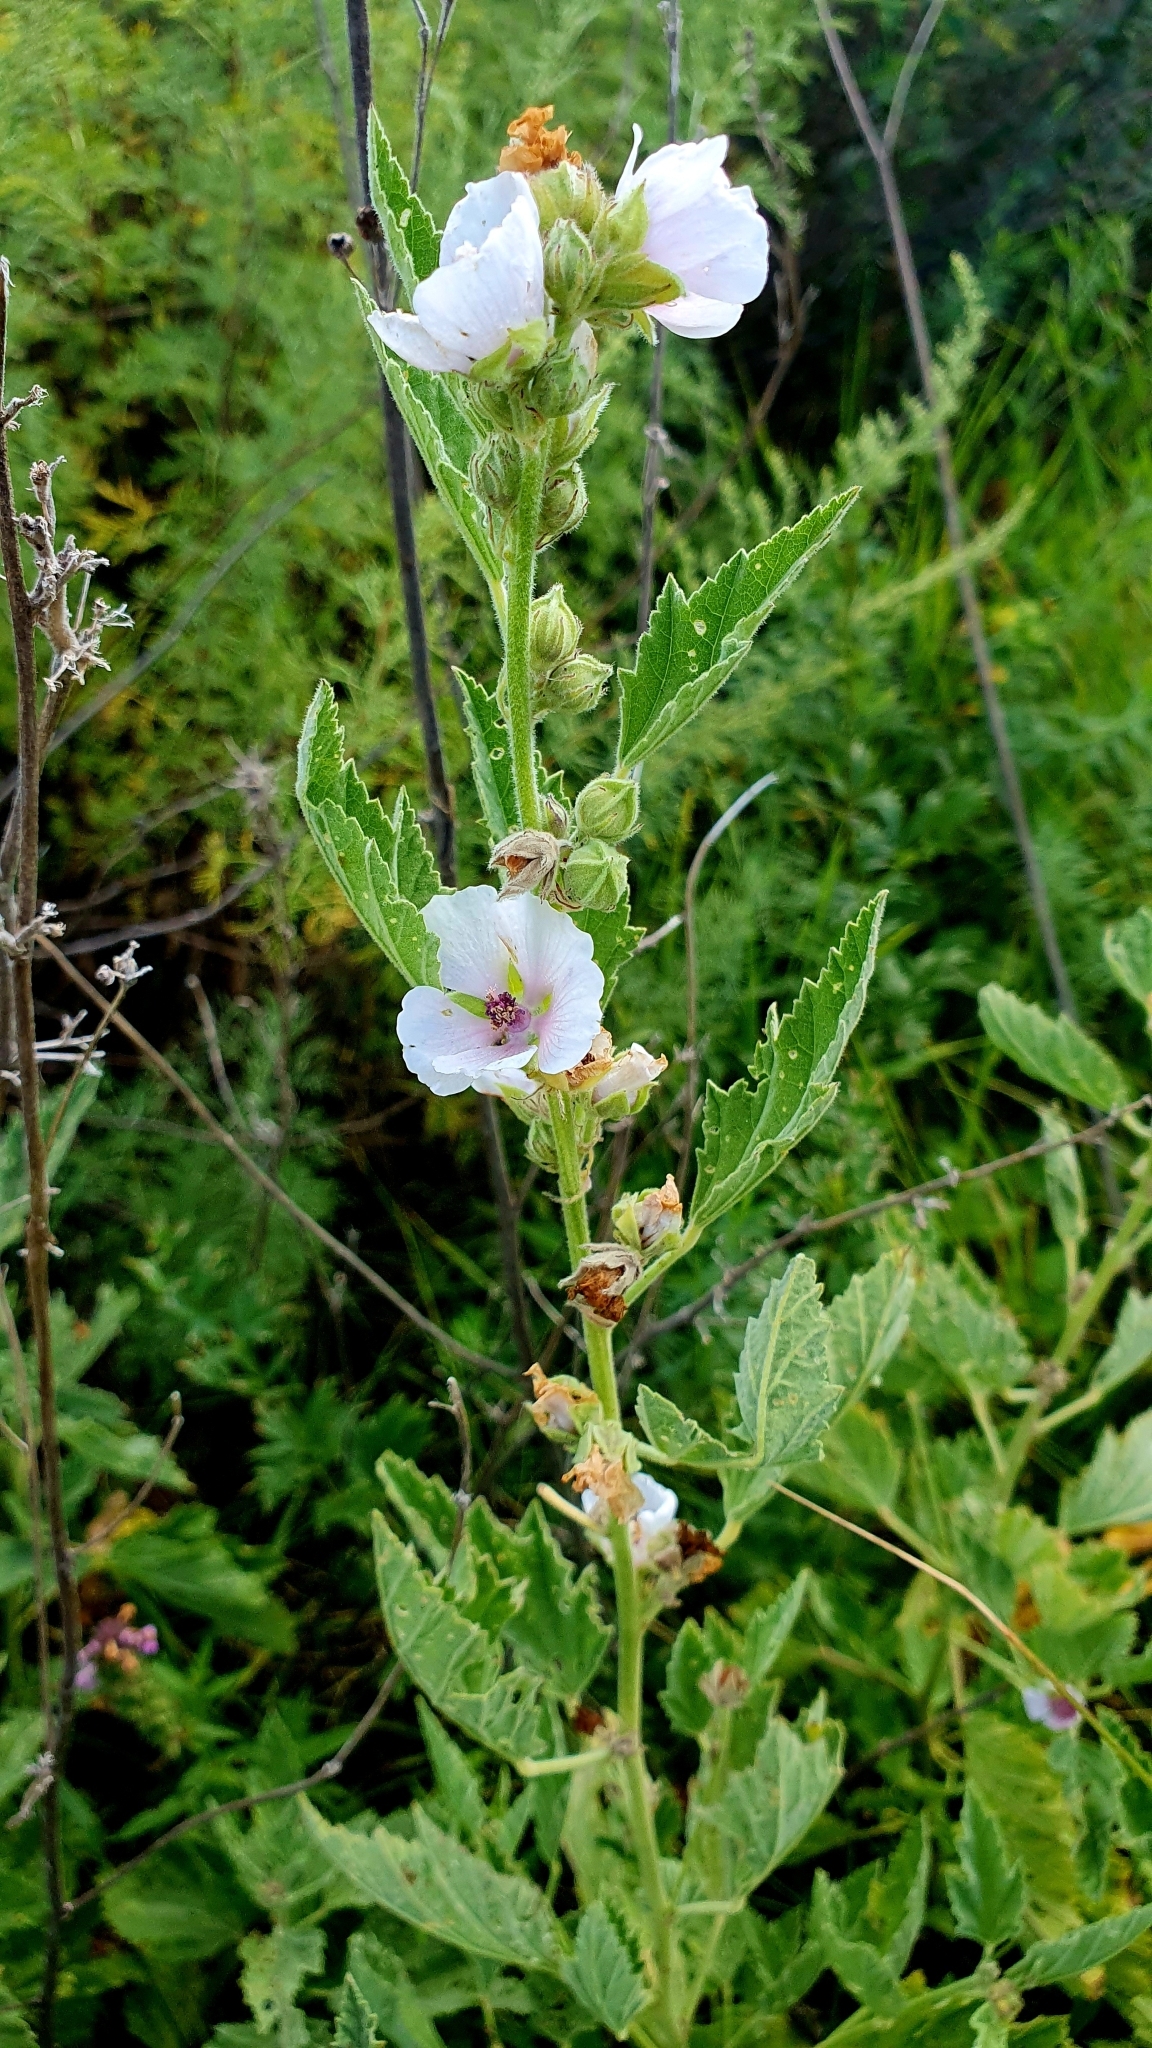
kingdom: Plantae
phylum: Tracheophyta
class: Magnoliopsida
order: Malvales
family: Malvaceae
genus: Althaea
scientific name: Althaea officinalis
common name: Marsh-mallow
